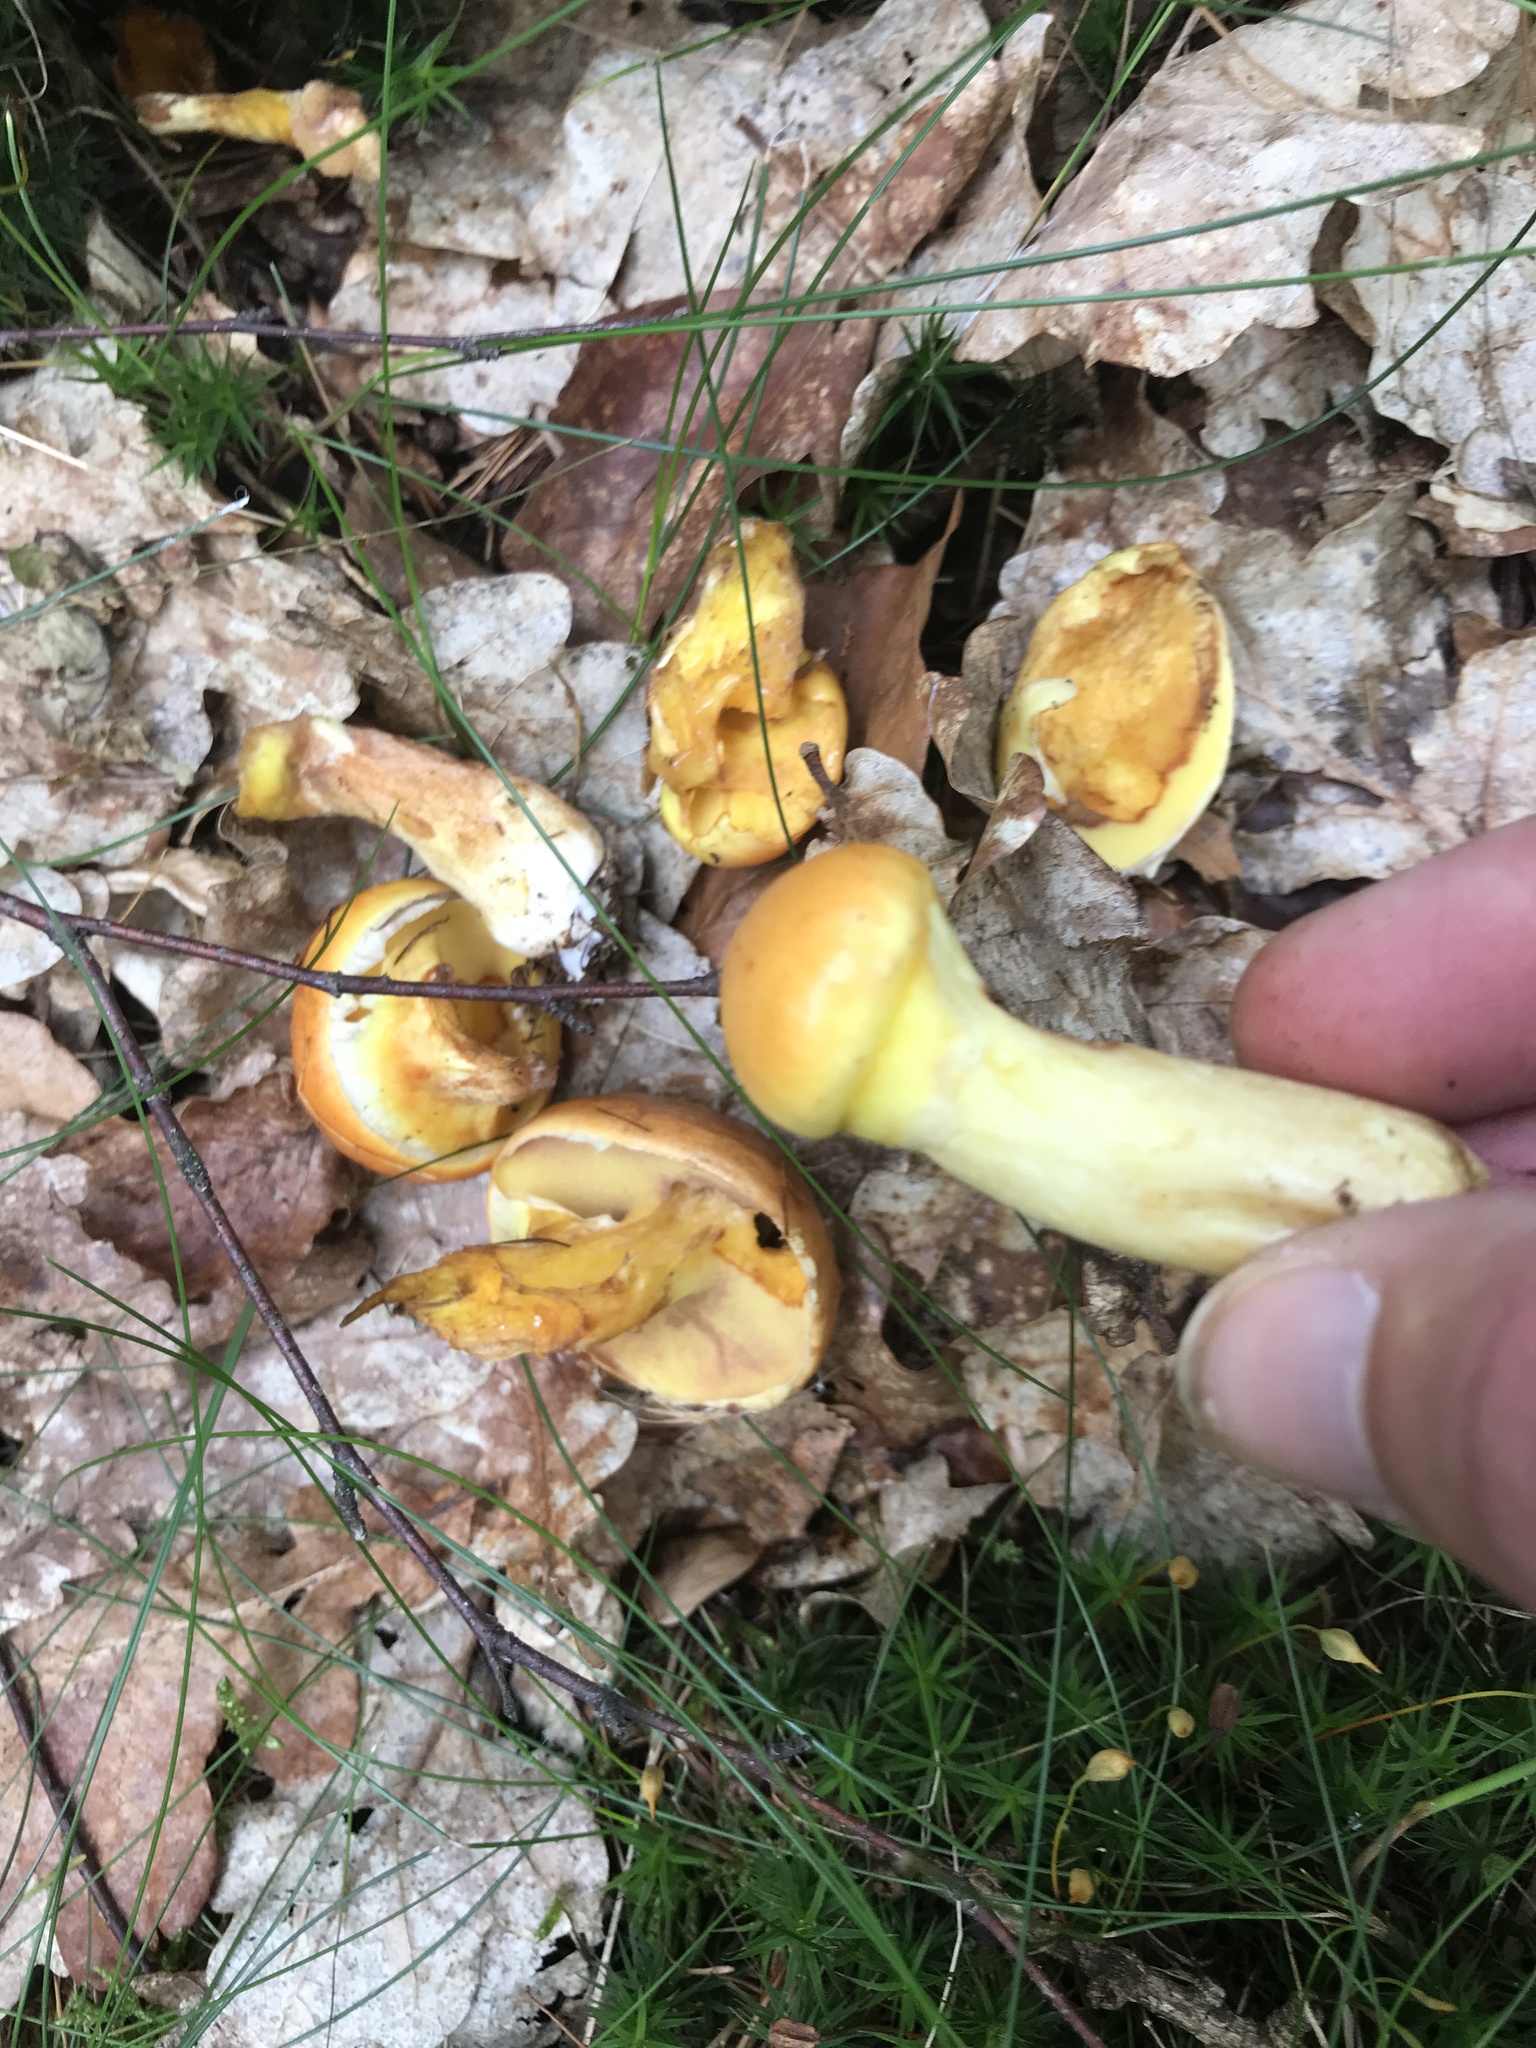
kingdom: Fungi
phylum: Basidiomycota
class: Agaricomycetes
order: Boletales
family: Suillaceae
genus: Suillus
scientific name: Suillus grevillei
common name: Larch bolete
